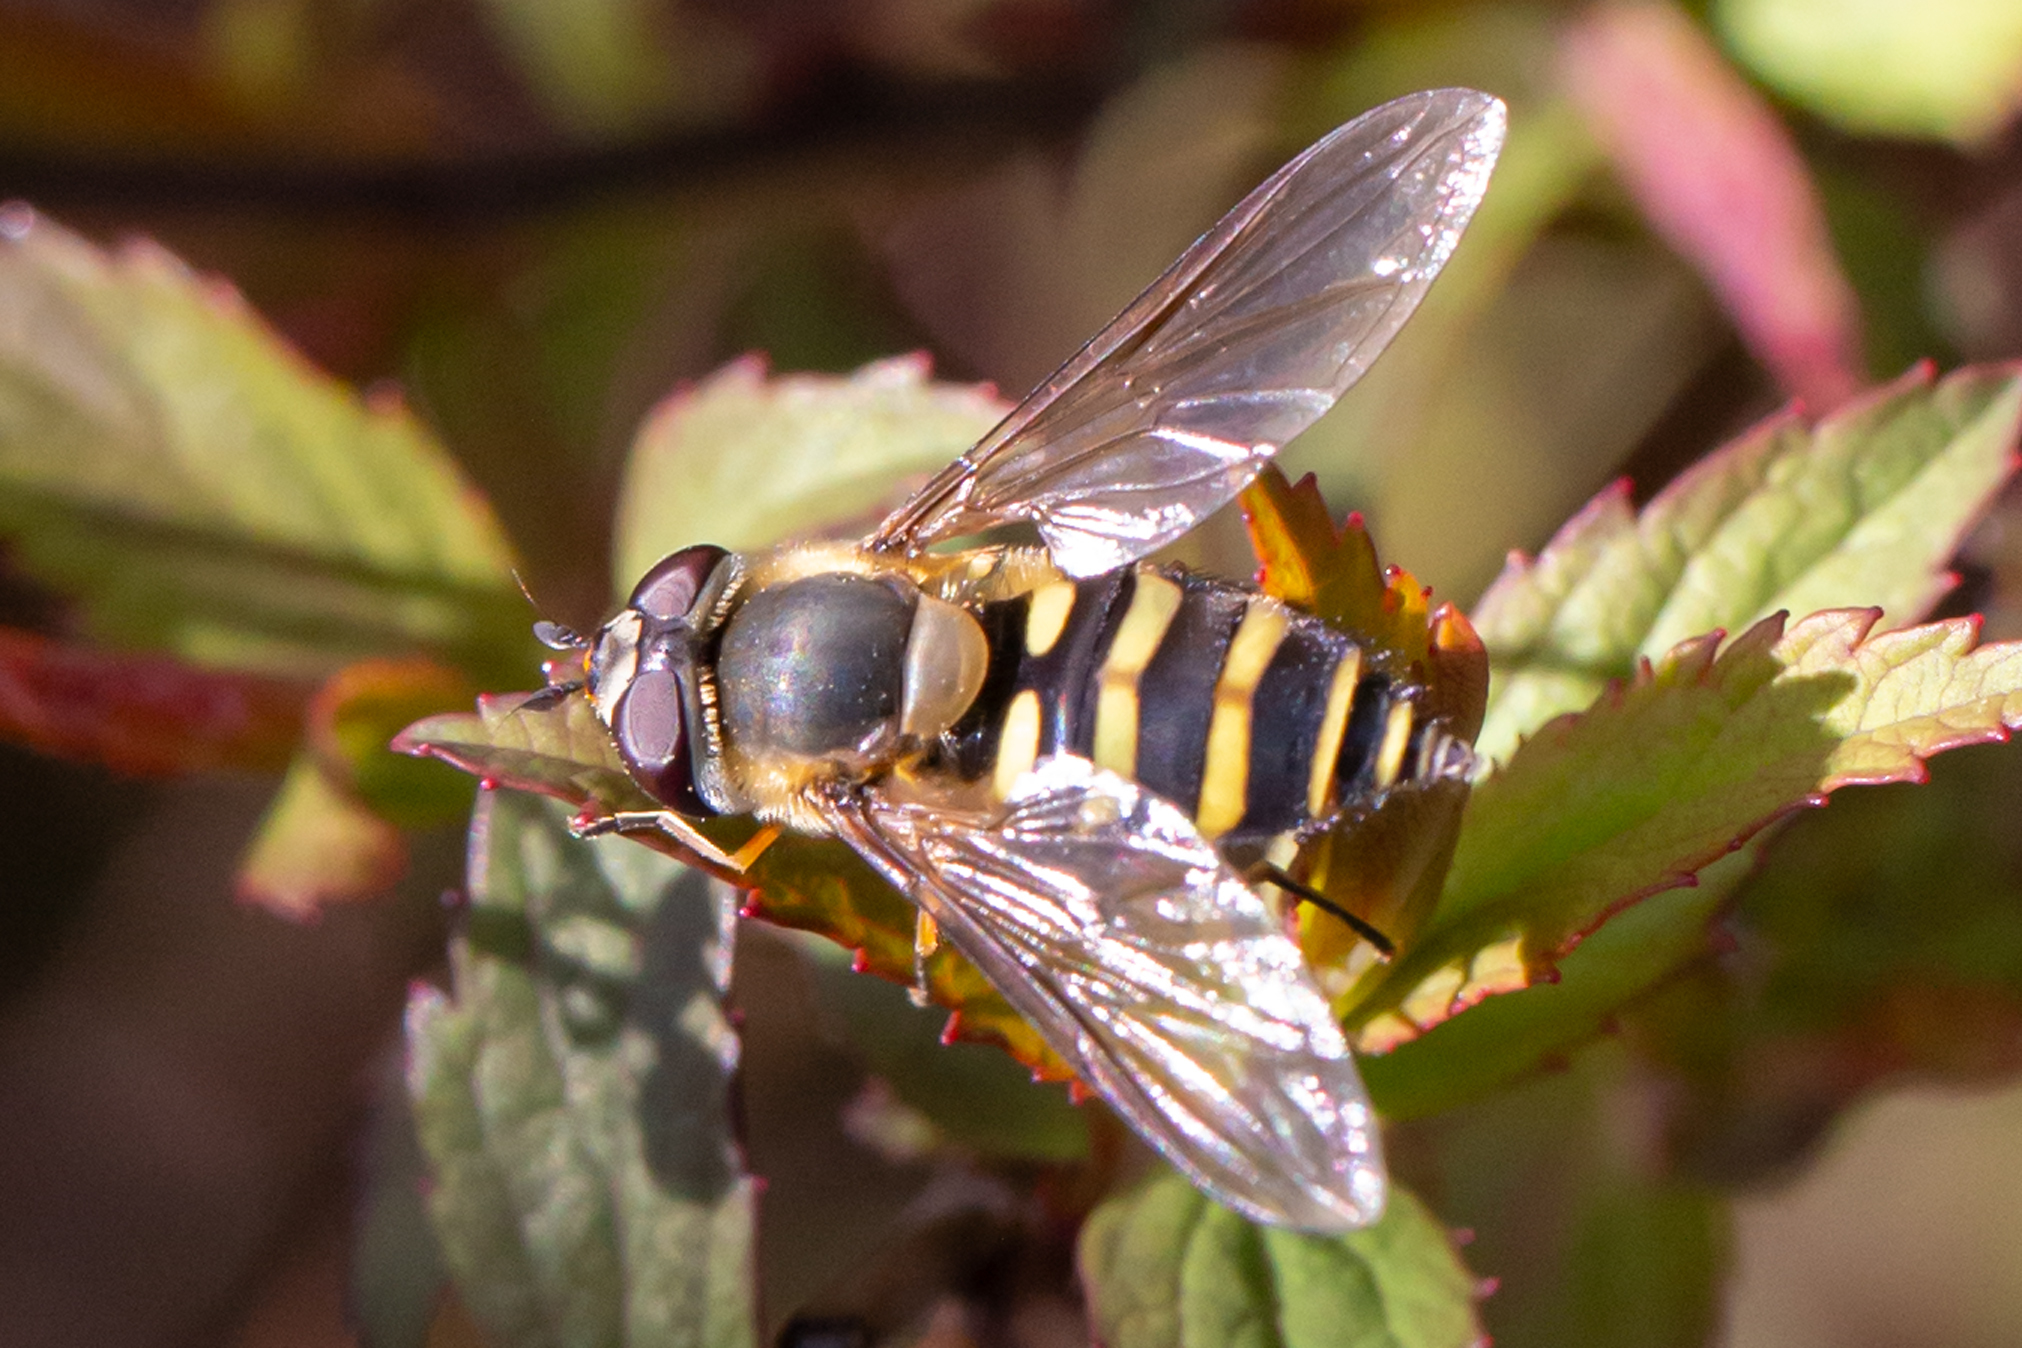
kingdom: Animalia
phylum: Arthropoda
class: Insecta
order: Diptera
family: Syrphidae
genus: Syrphus
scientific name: Syrphus torvus
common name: Hairy-eyed flower fly
